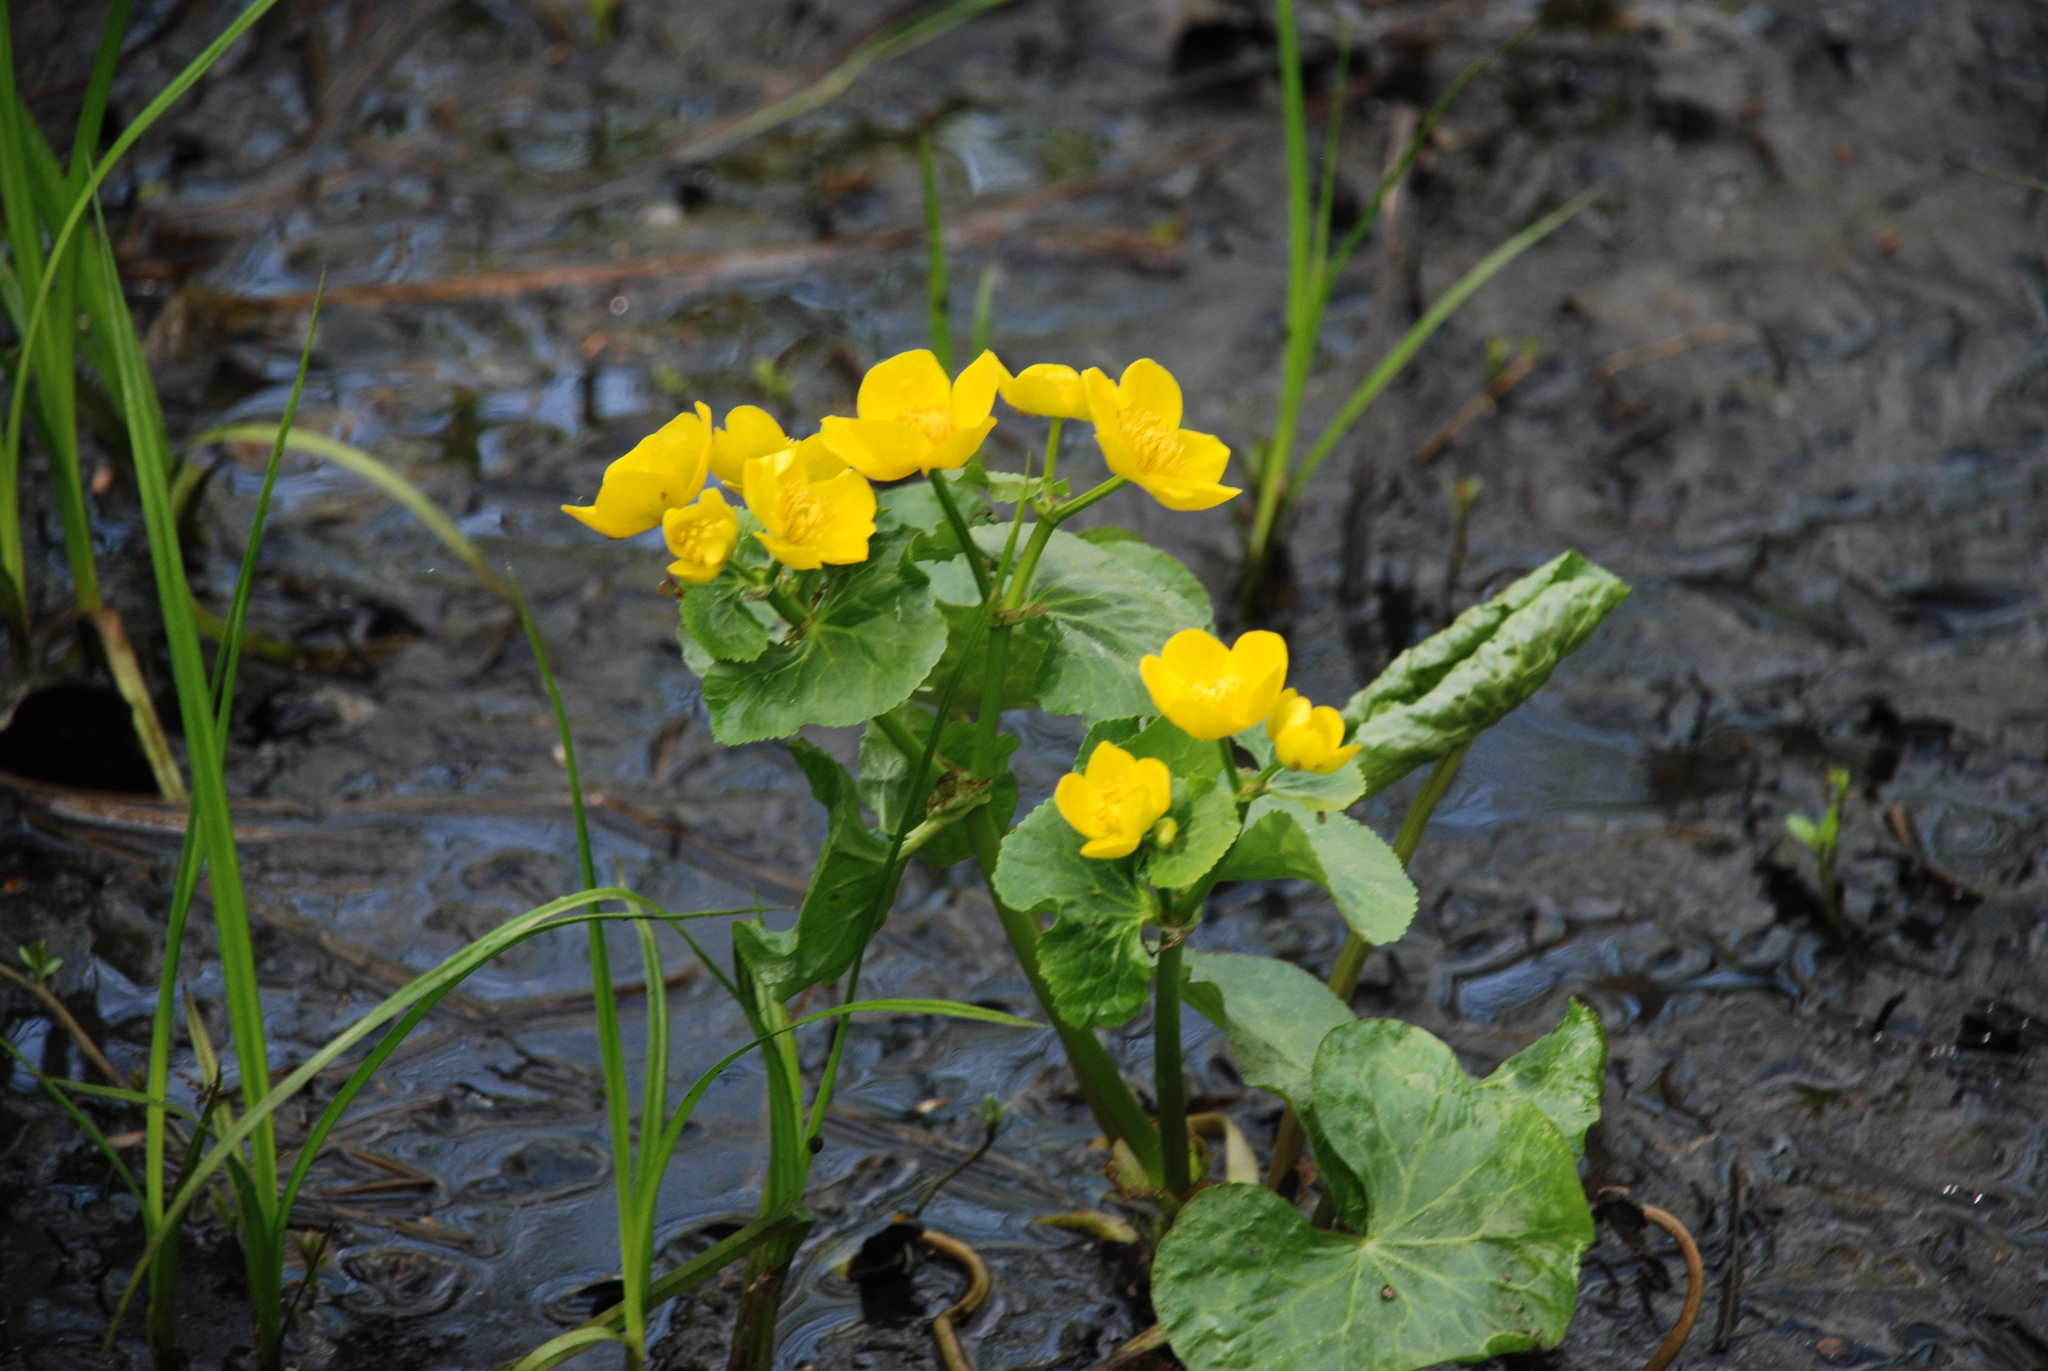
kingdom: Plantae
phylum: Tracheophyta
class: Magnoliopsida
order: Ranunculales
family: Ranunculaceae
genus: Caltha
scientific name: Caltha palustris
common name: Marsh marigold
